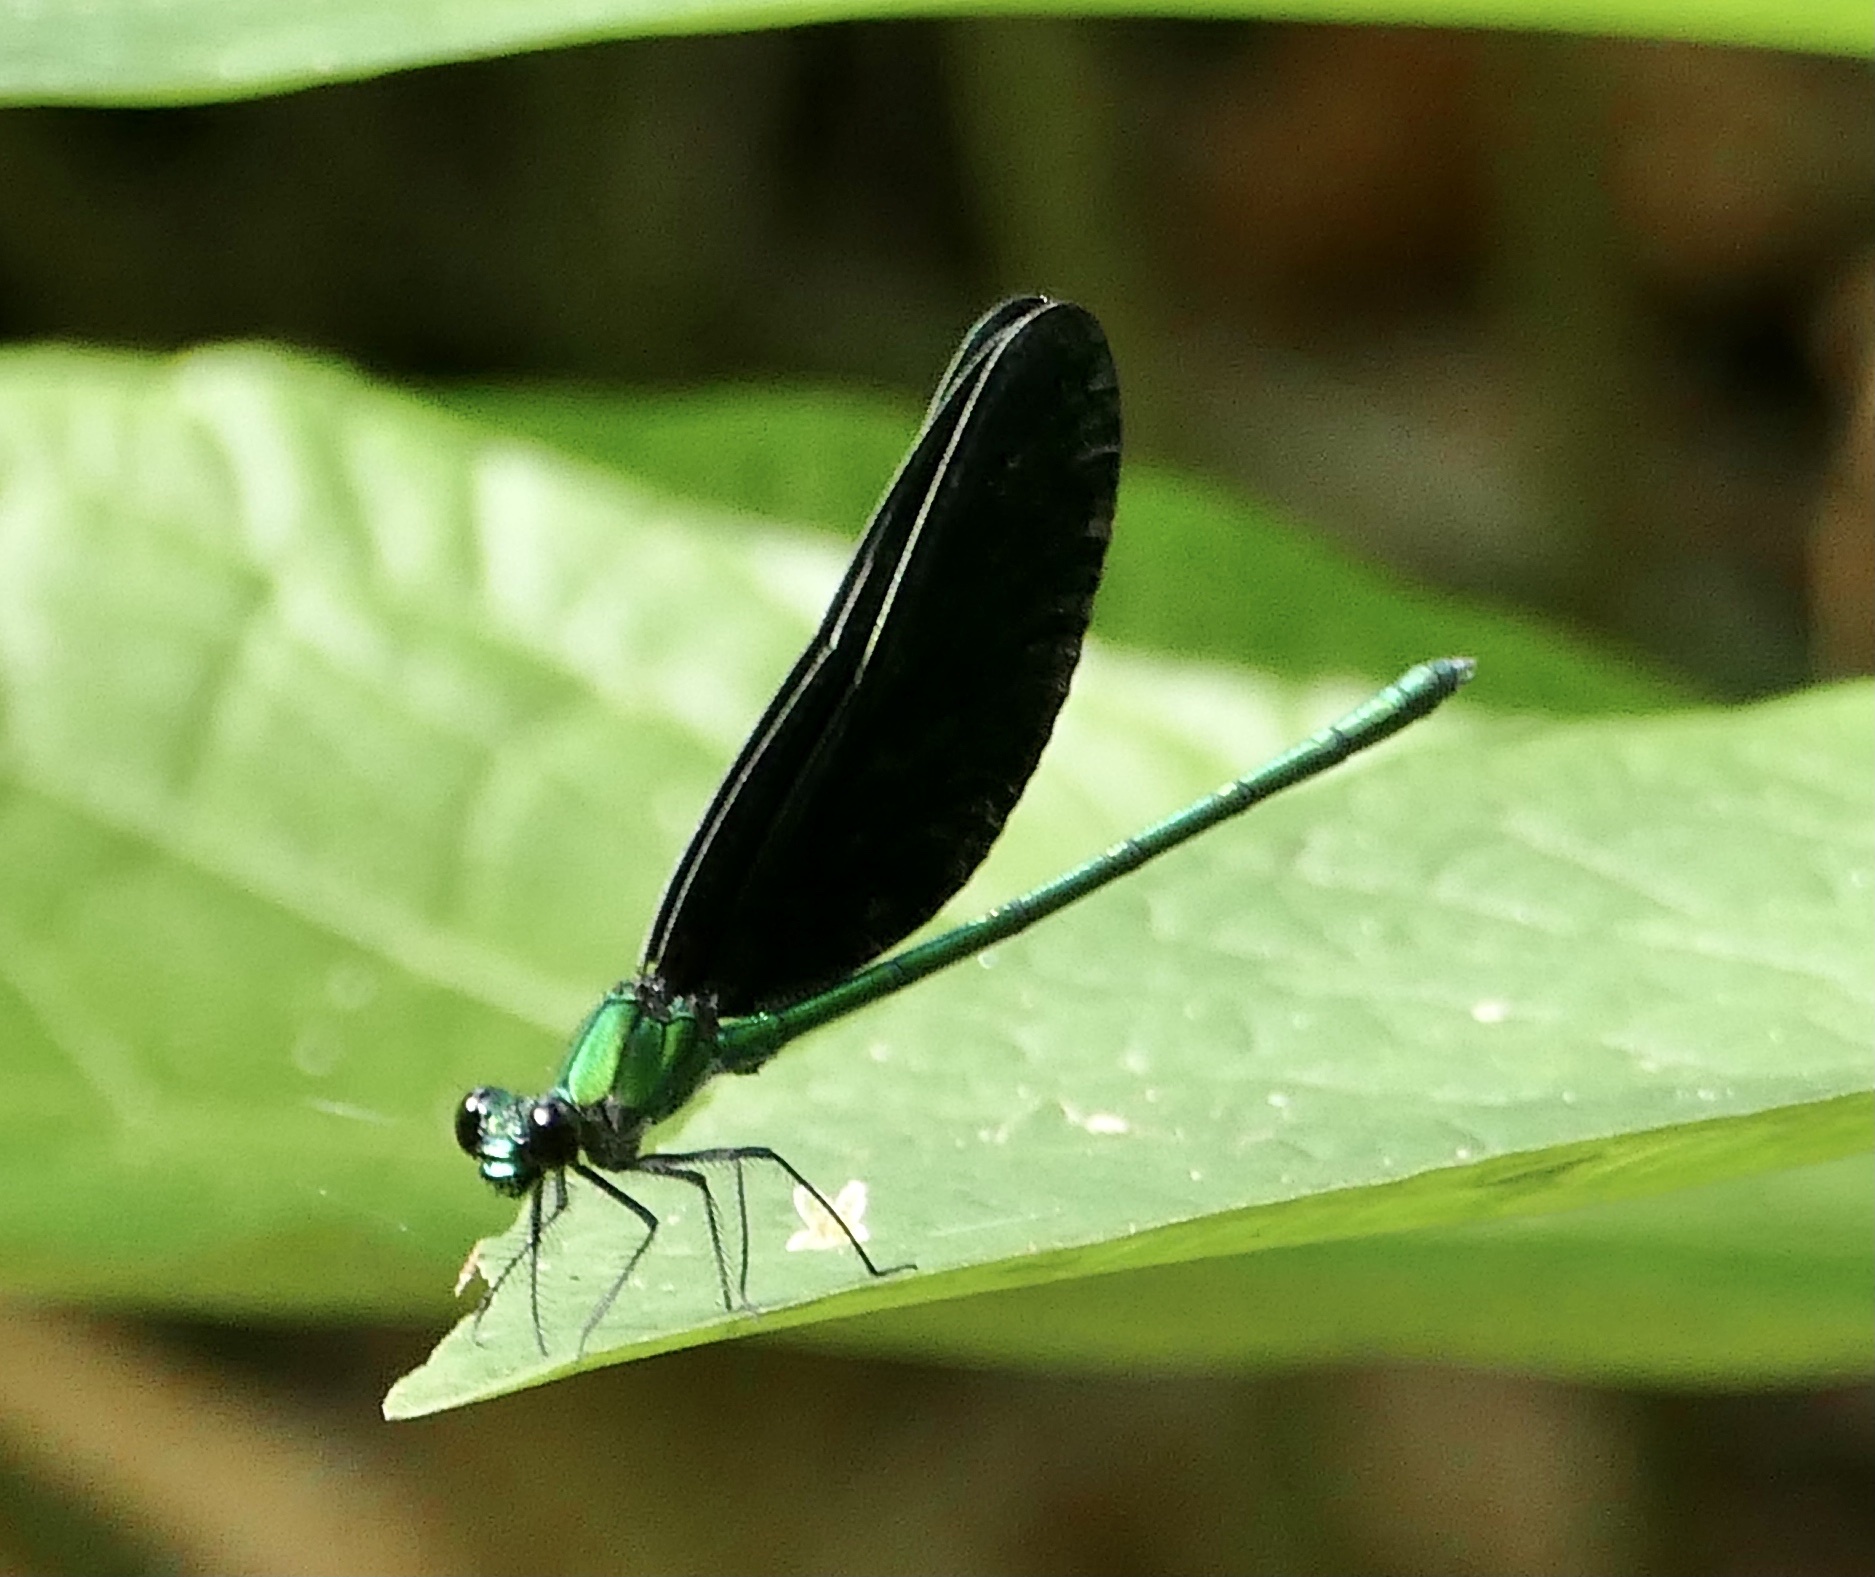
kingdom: Animalia
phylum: Arthropoda
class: Insecta
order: Odonata
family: Calopterygidae
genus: Sapho
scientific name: Sapho ciliata
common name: Western bluewing
